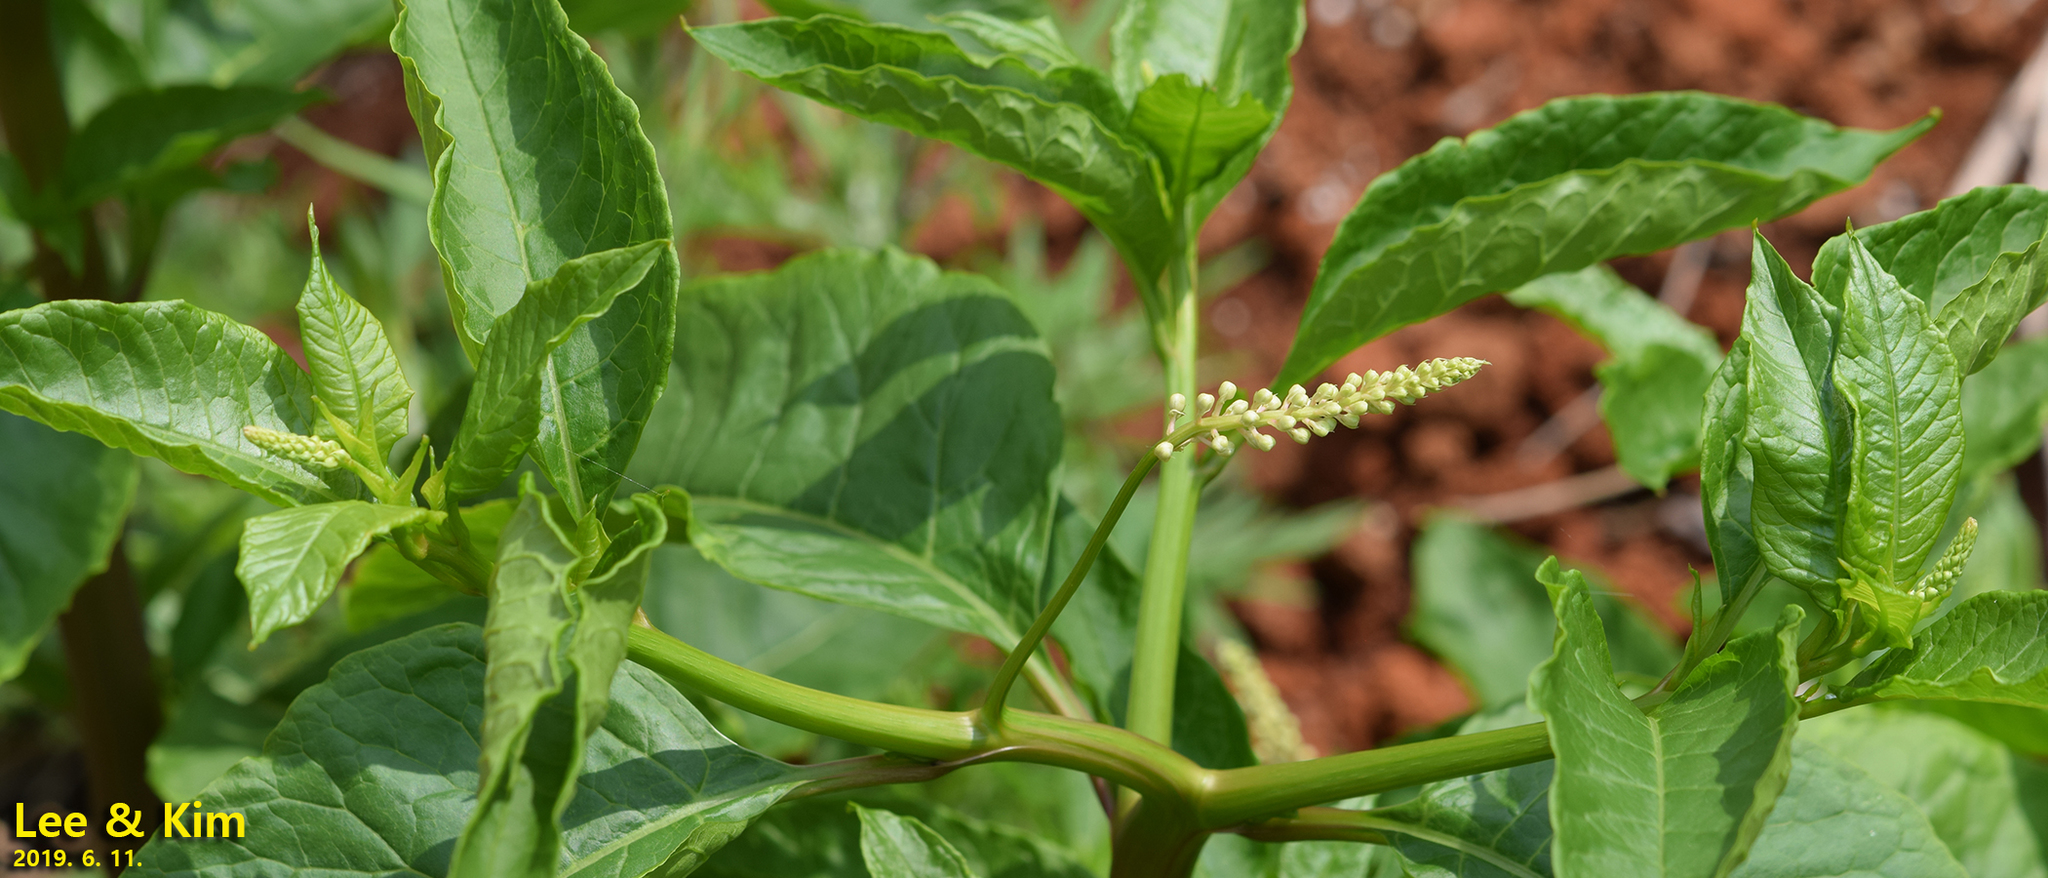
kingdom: Plantae
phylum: Tracheophyta
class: Magnoliopsida
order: Caryophyllales
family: Phytolaccaceae
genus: Phytolacca
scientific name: Phytolacca americana
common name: American pokeweed
